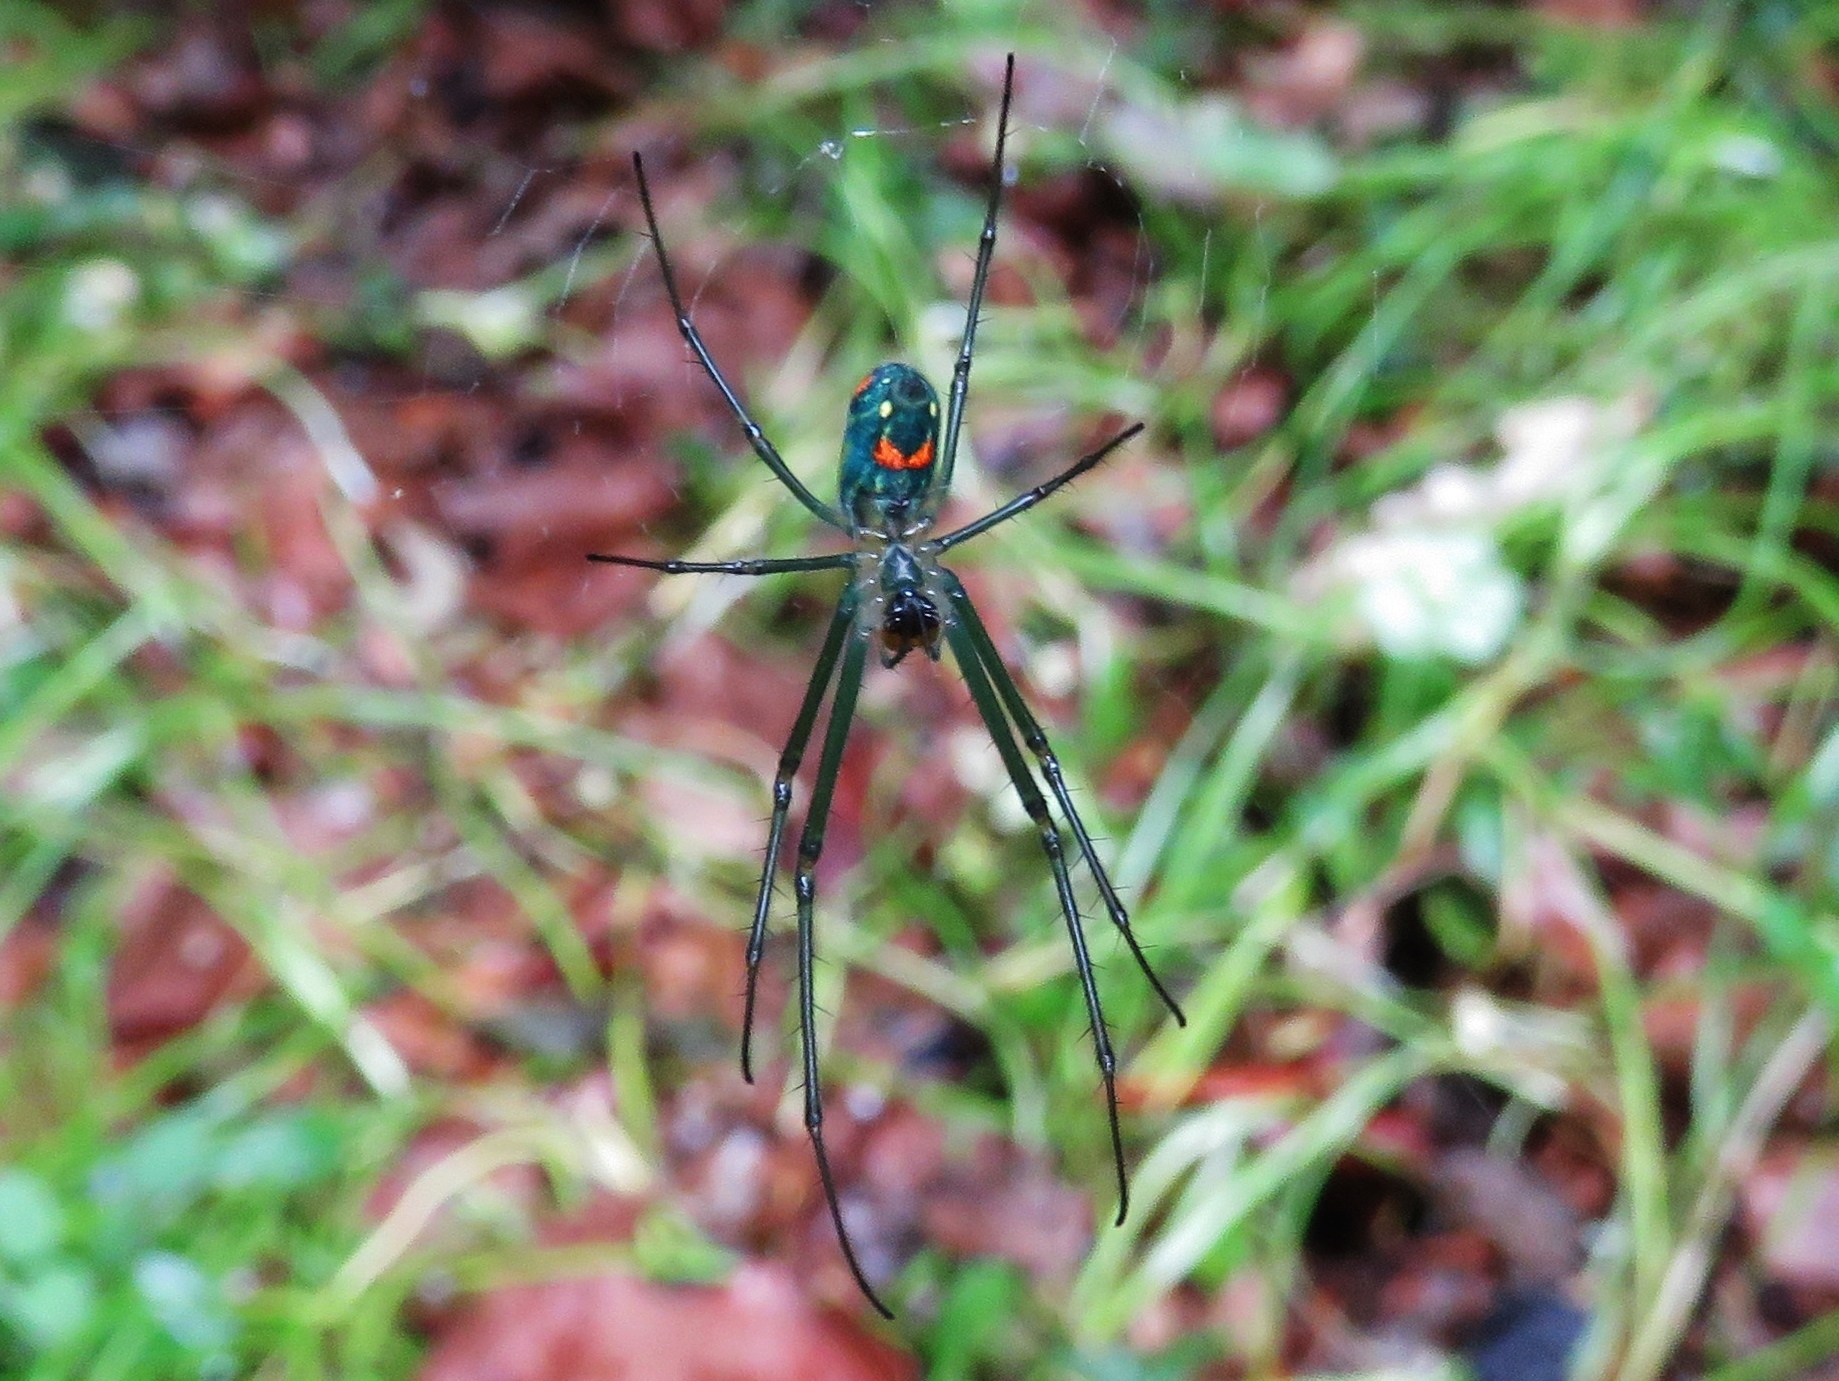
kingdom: Animalia
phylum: Arthropoda
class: Arachnida
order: Araneae
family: Tetragnathidae
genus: Leucauge
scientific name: Leucauge argyrobapta
